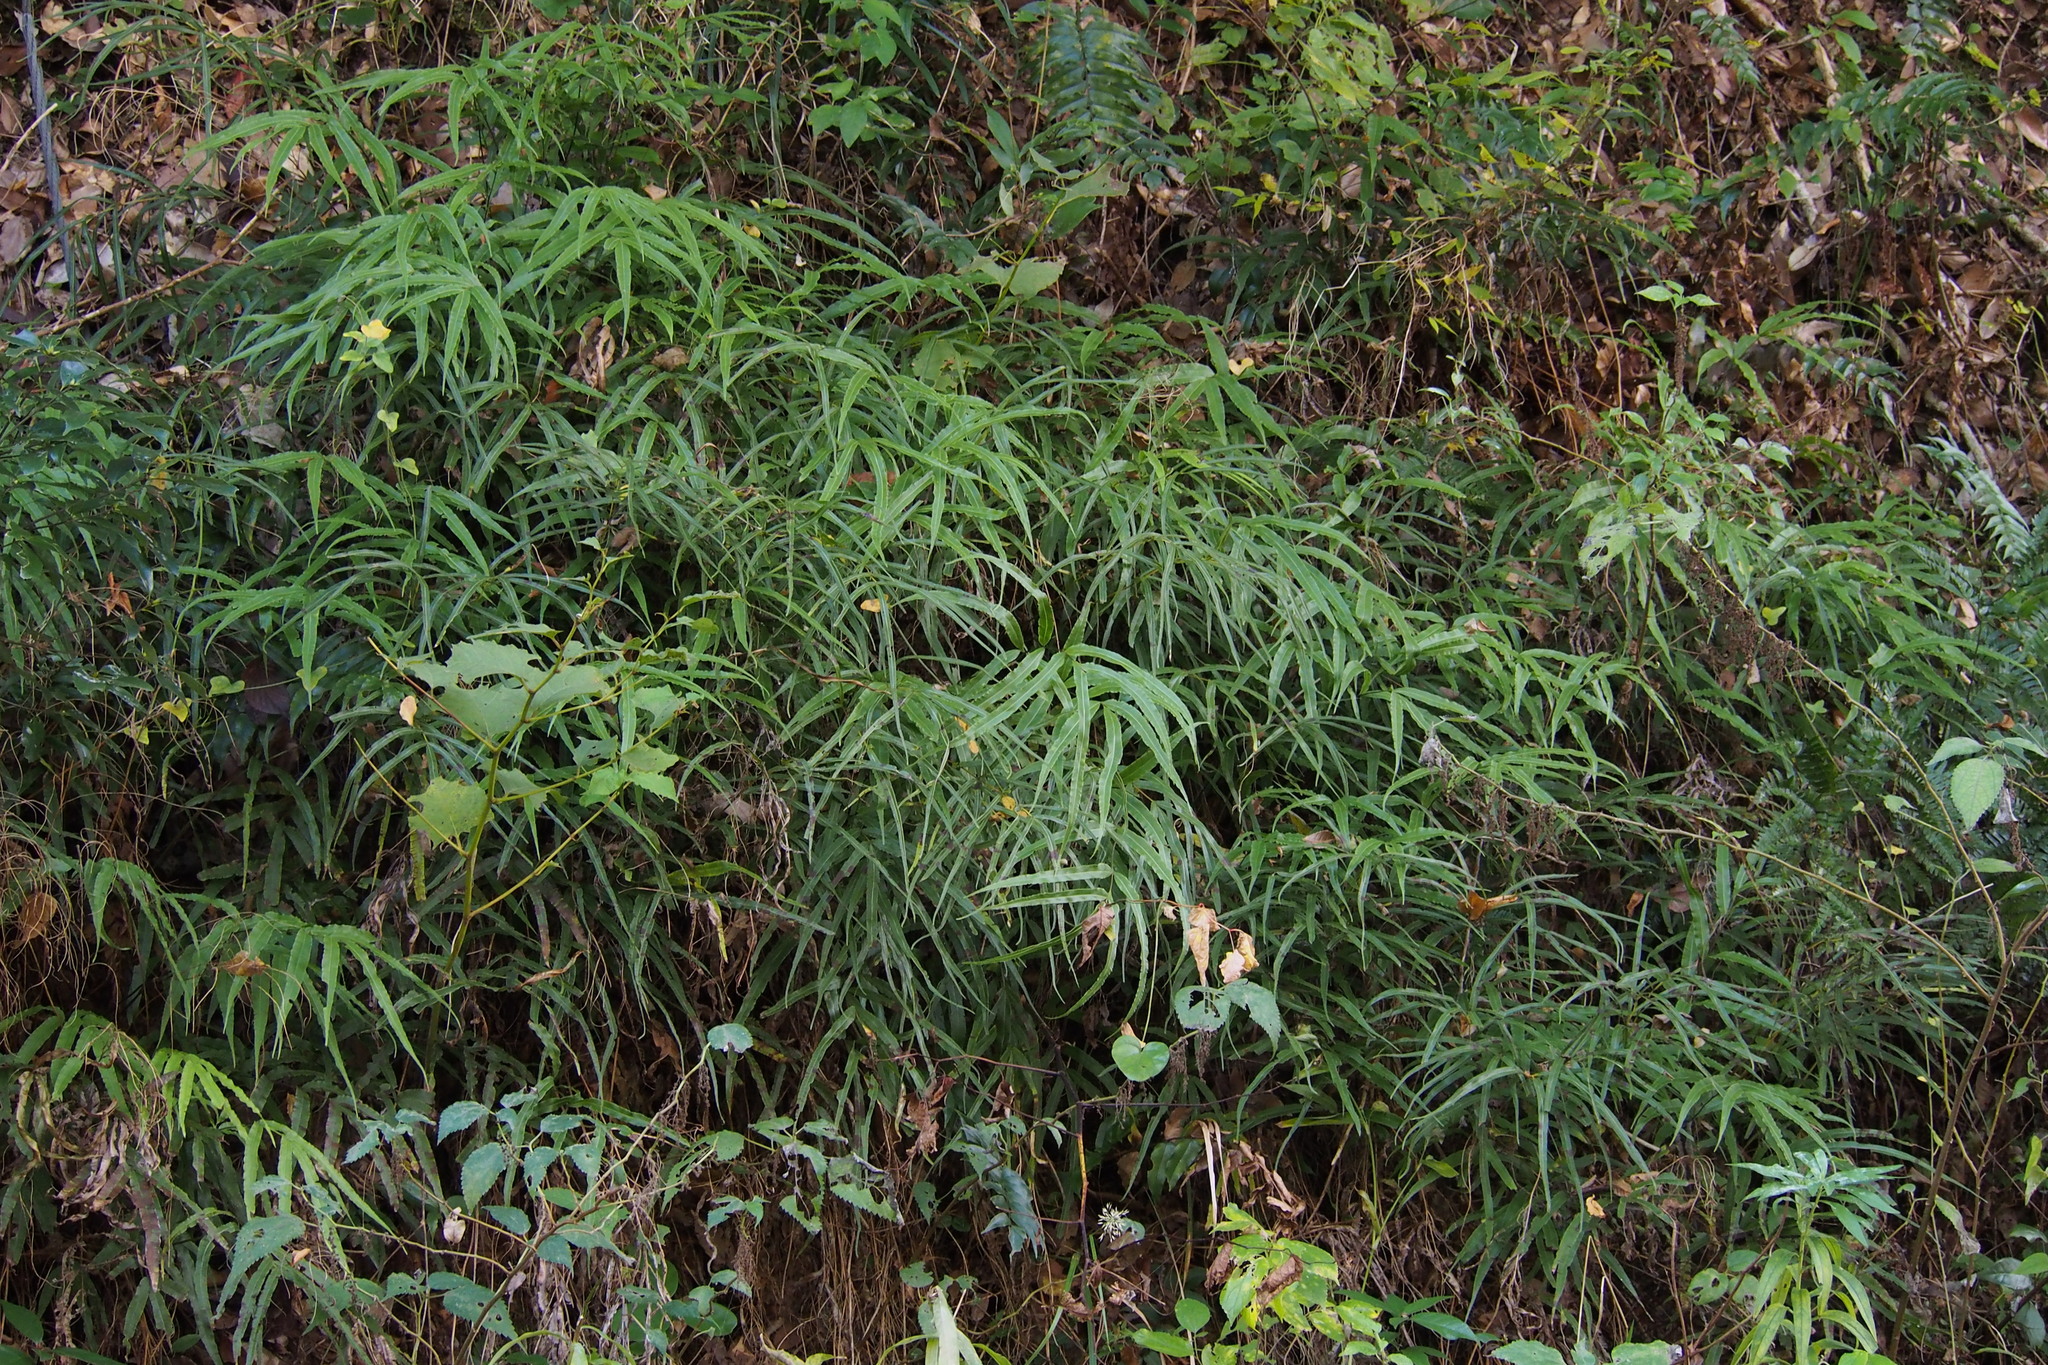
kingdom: Plantae
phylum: Tracheophyta
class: Polypodiopsida
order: Polypodiales
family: Pteridaceae
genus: Pteris
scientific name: Pteris cretica
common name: Ribbon fern
